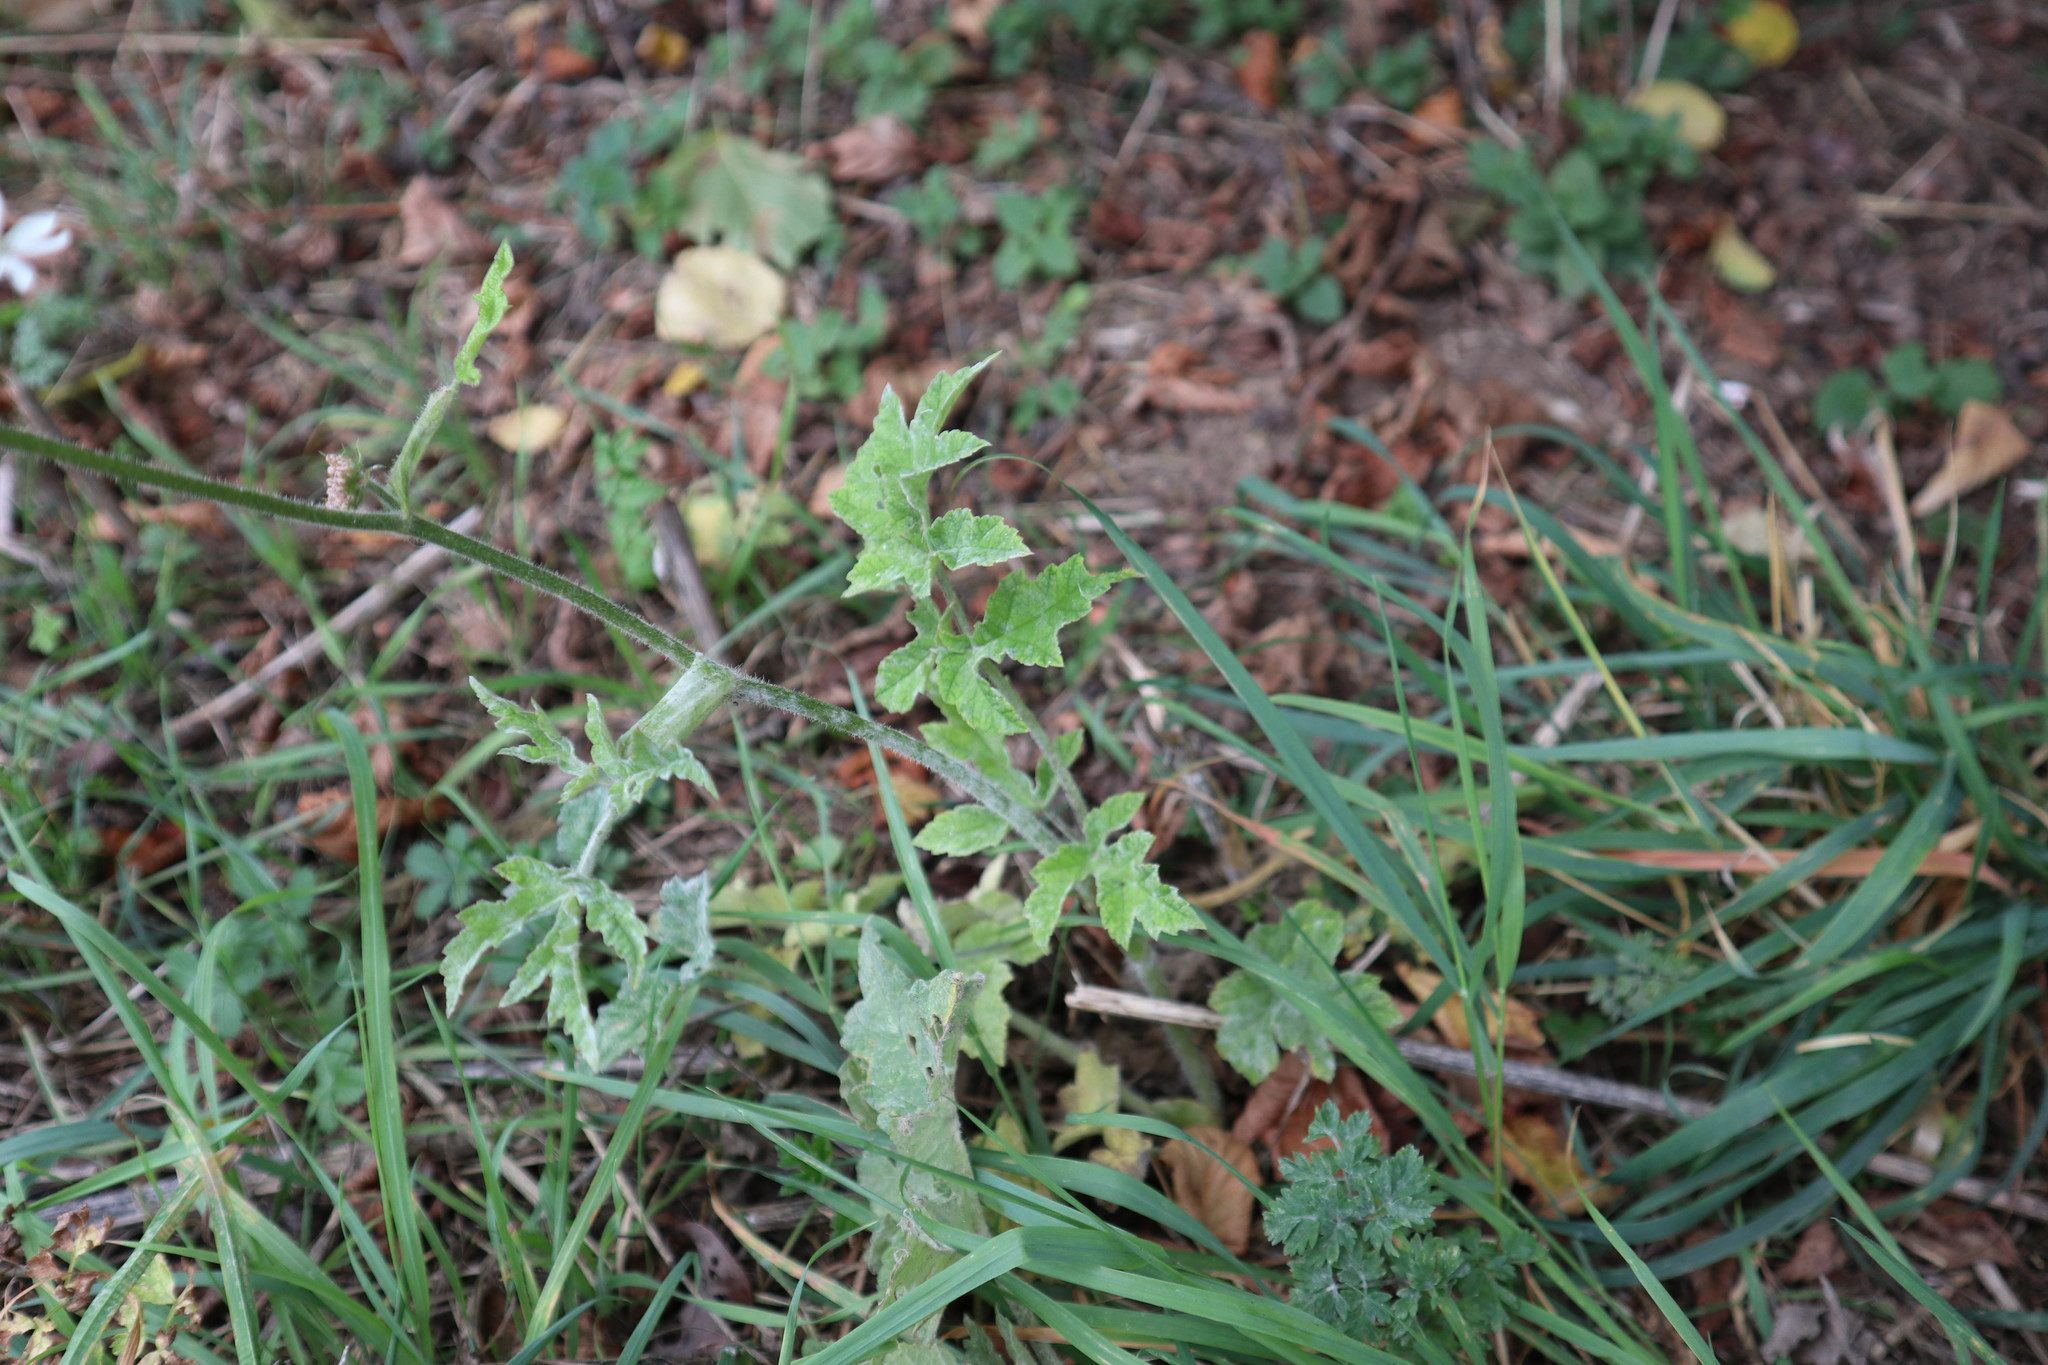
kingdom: Plantae
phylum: Tracheophyta
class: Magnoliopsida
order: Apiales
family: Apiaceae
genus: Heracleum
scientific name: Heracleum sphondylium
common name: Hogweed
